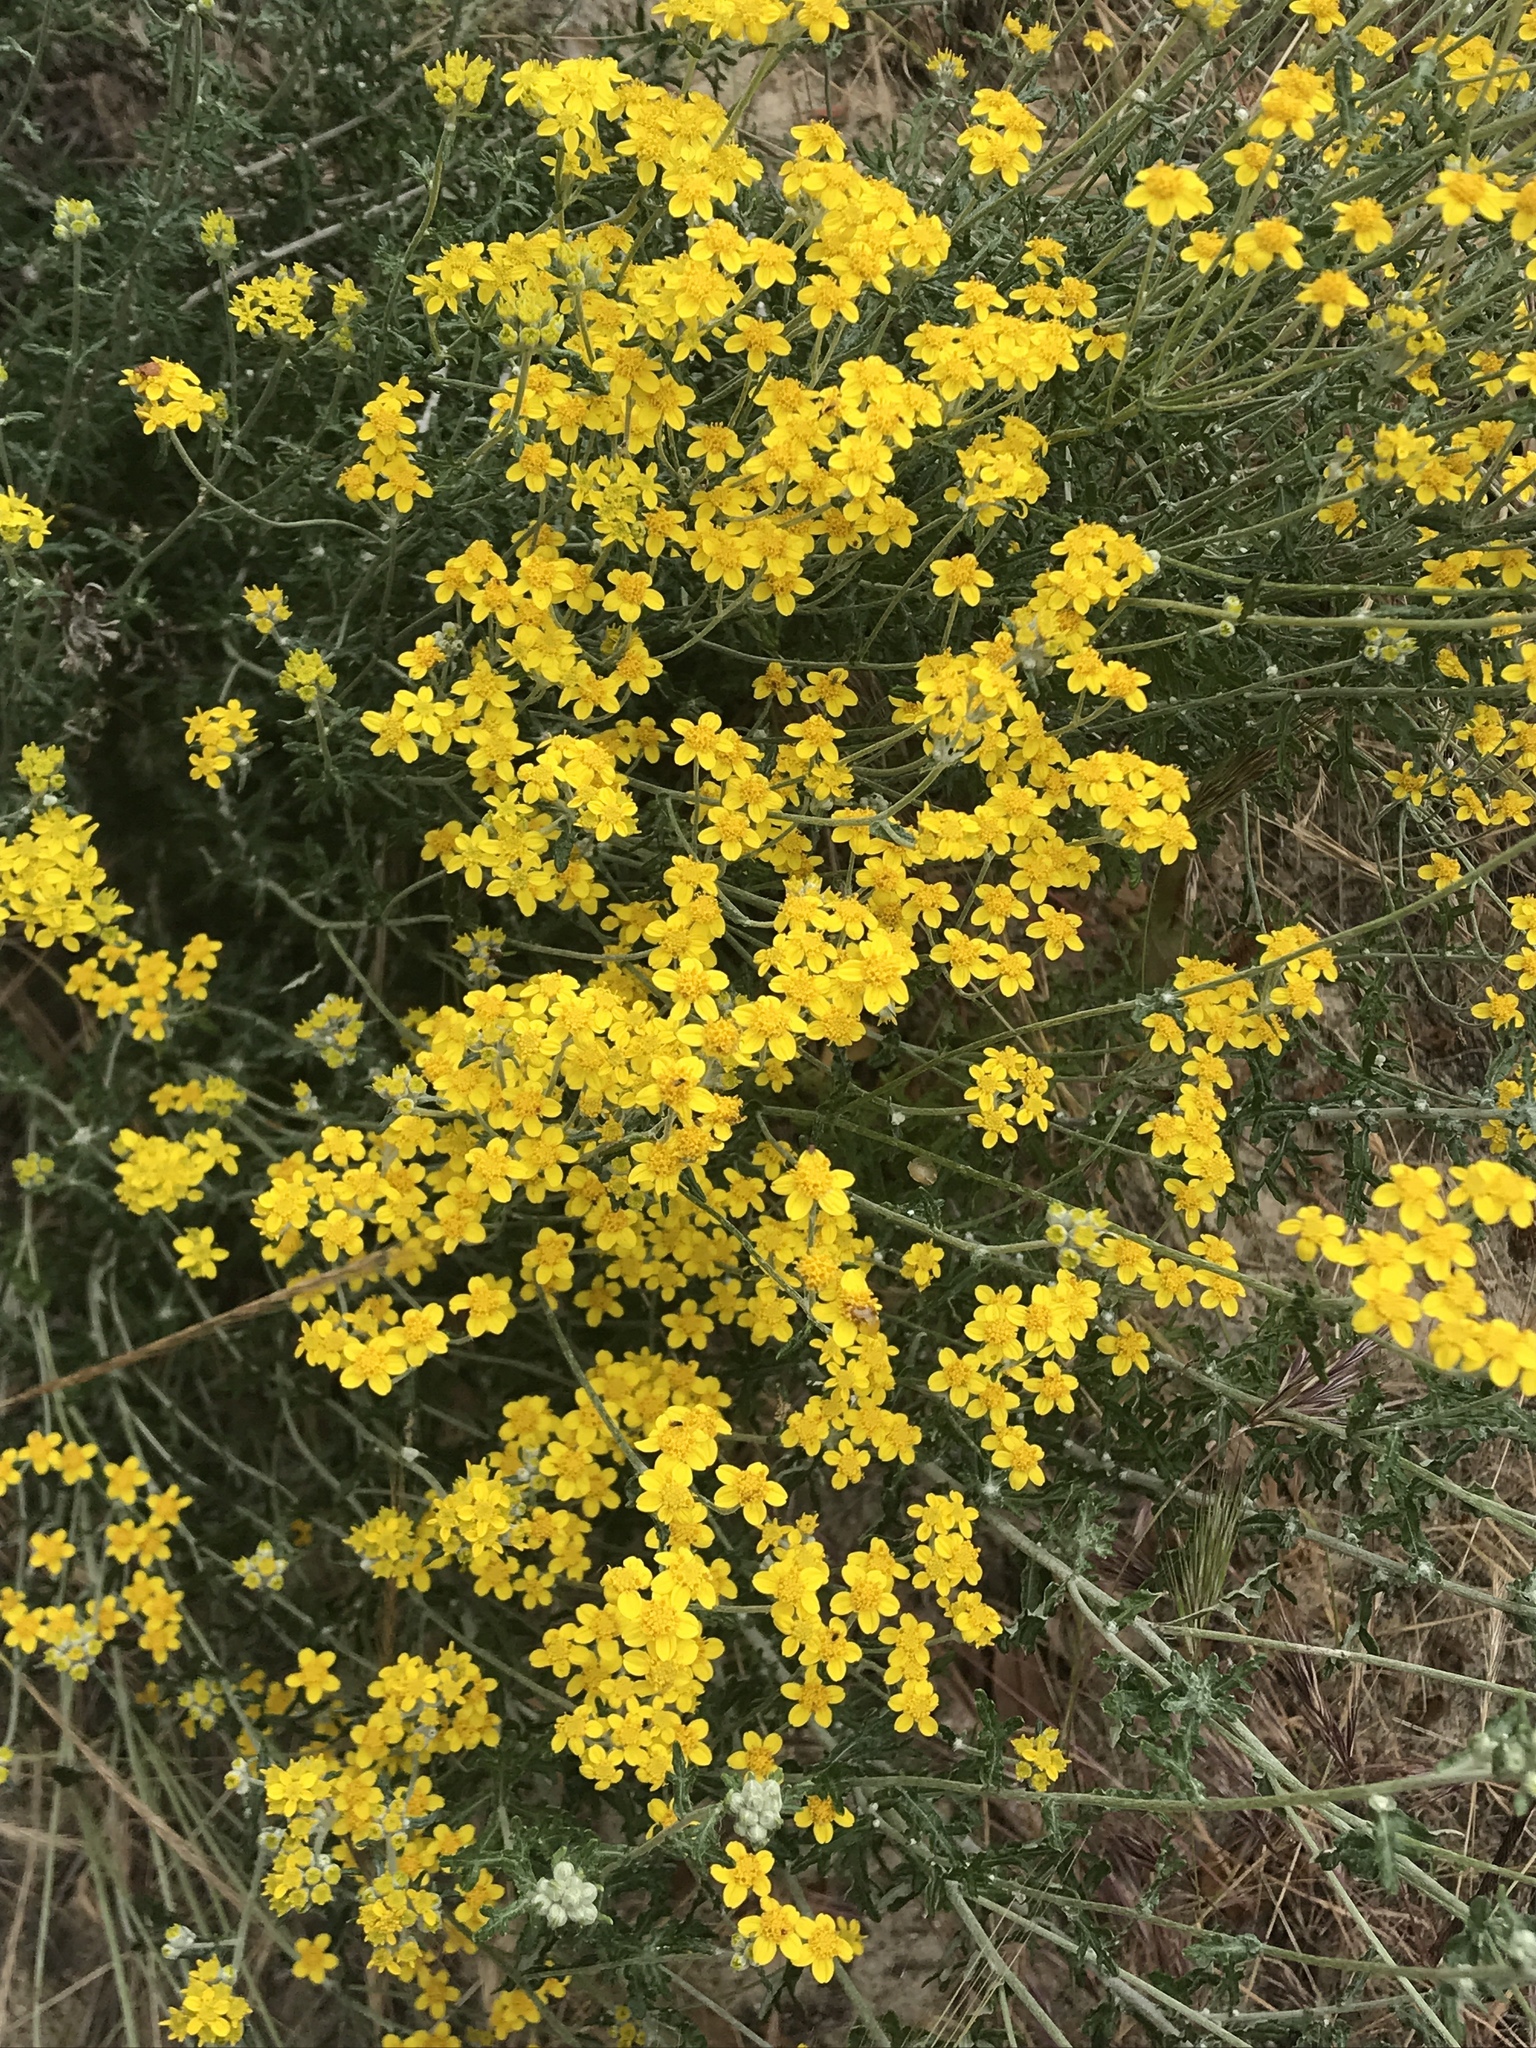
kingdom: Plantae
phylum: Tracheophyta
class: Magnoliopsida
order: Asterales
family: Asteraceae
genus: Eriophyllum
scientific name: Eriophyllum confertiflorum
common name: Golden-yarrow
